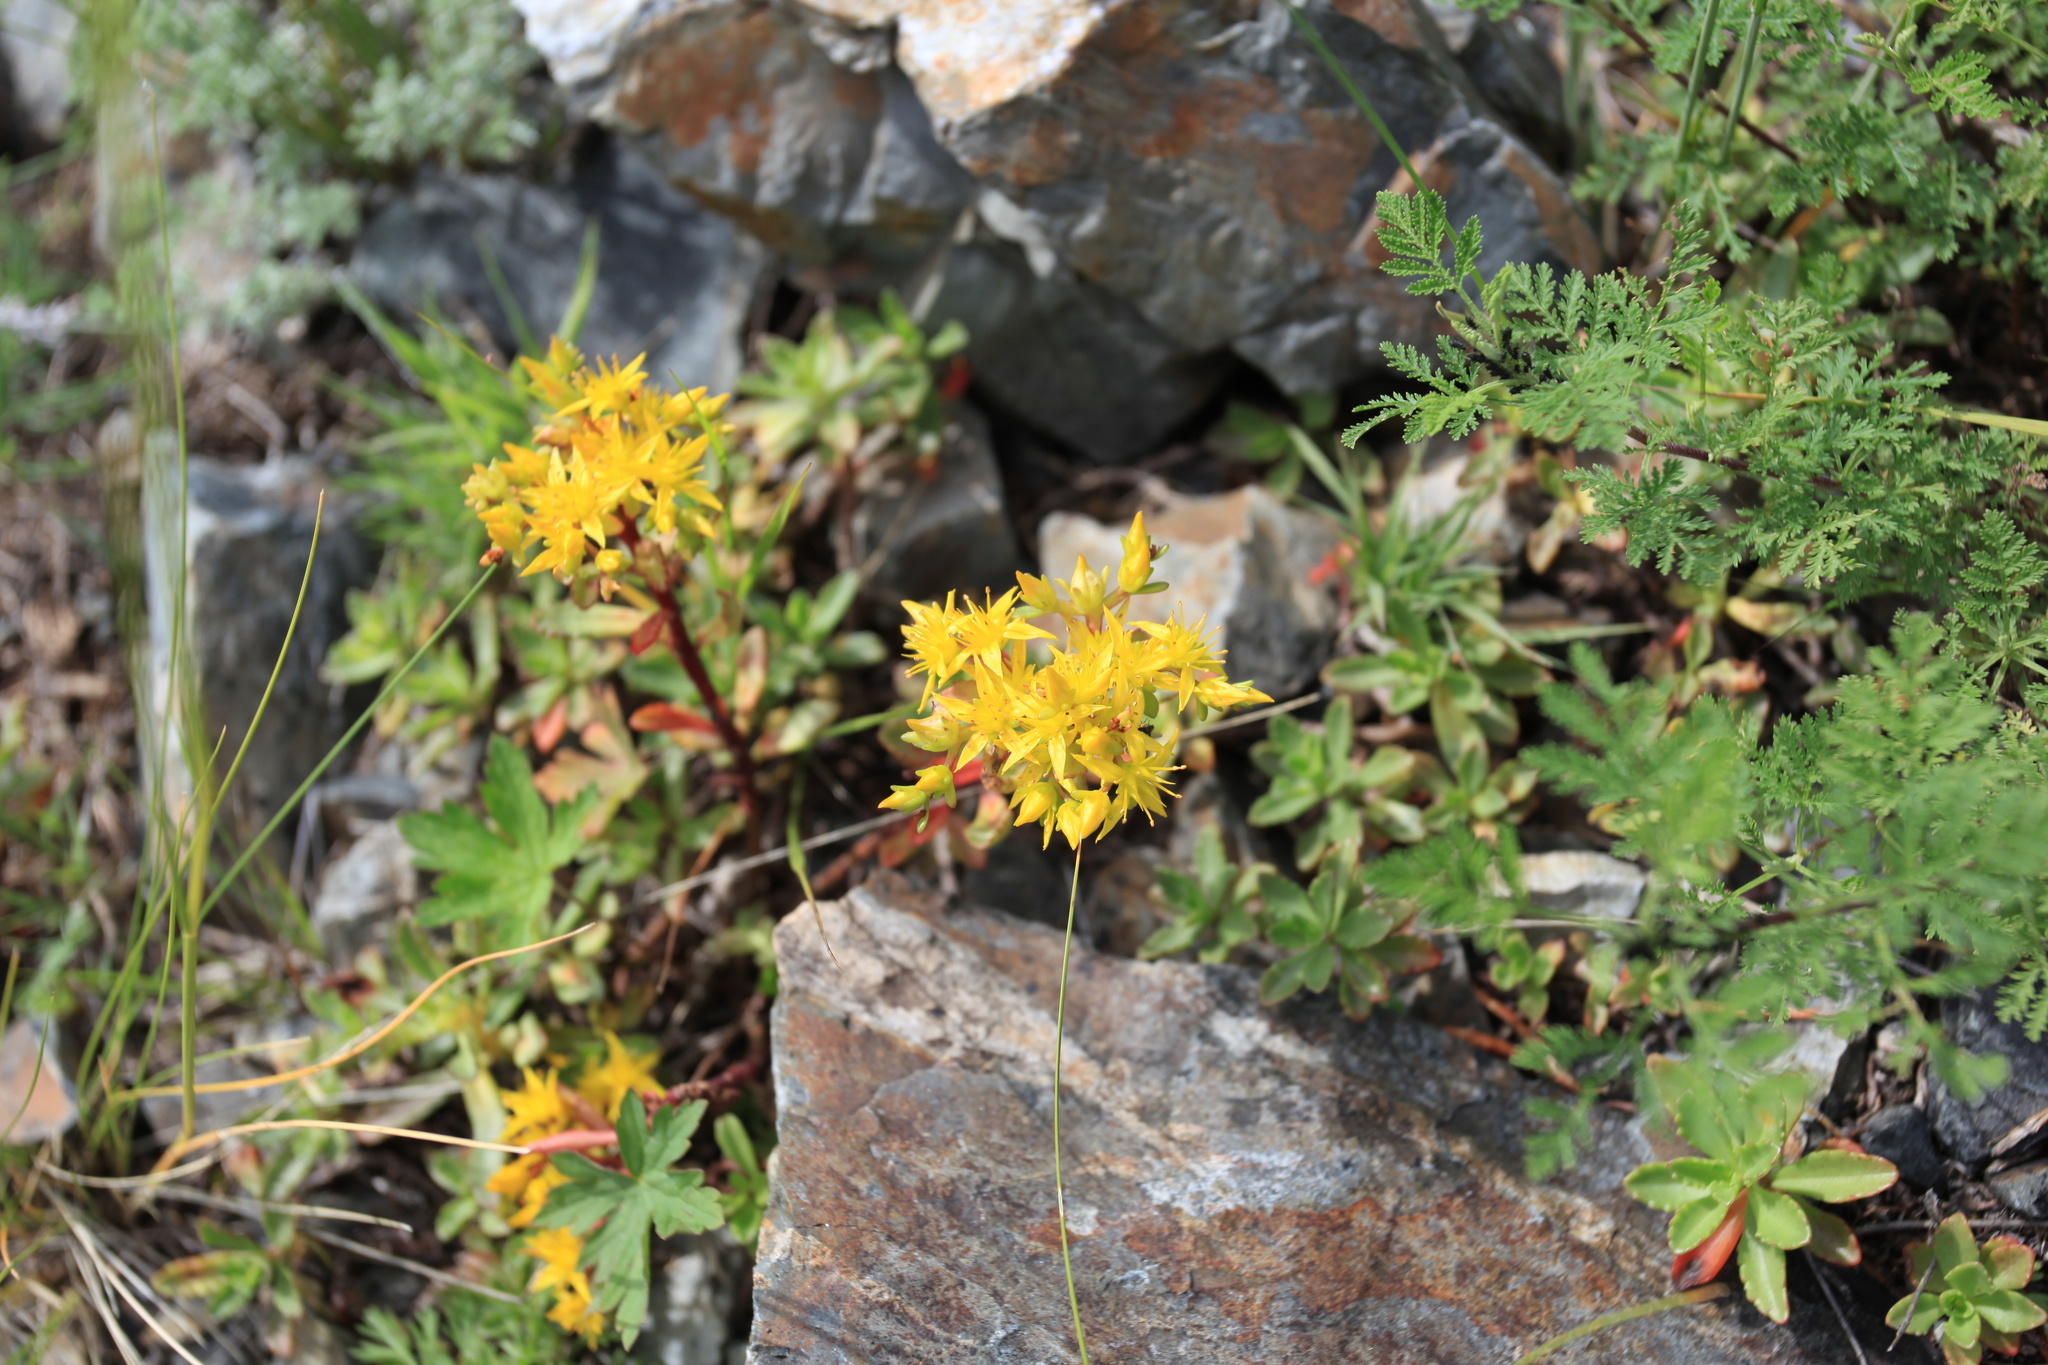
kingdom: Plantae
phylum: Tracheophyta
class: Magnoliopsida
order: Saxifragales
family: Crassulaceae
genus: Phedimus
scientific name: Phedimus hybridus
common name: Hybrid stonecrop
